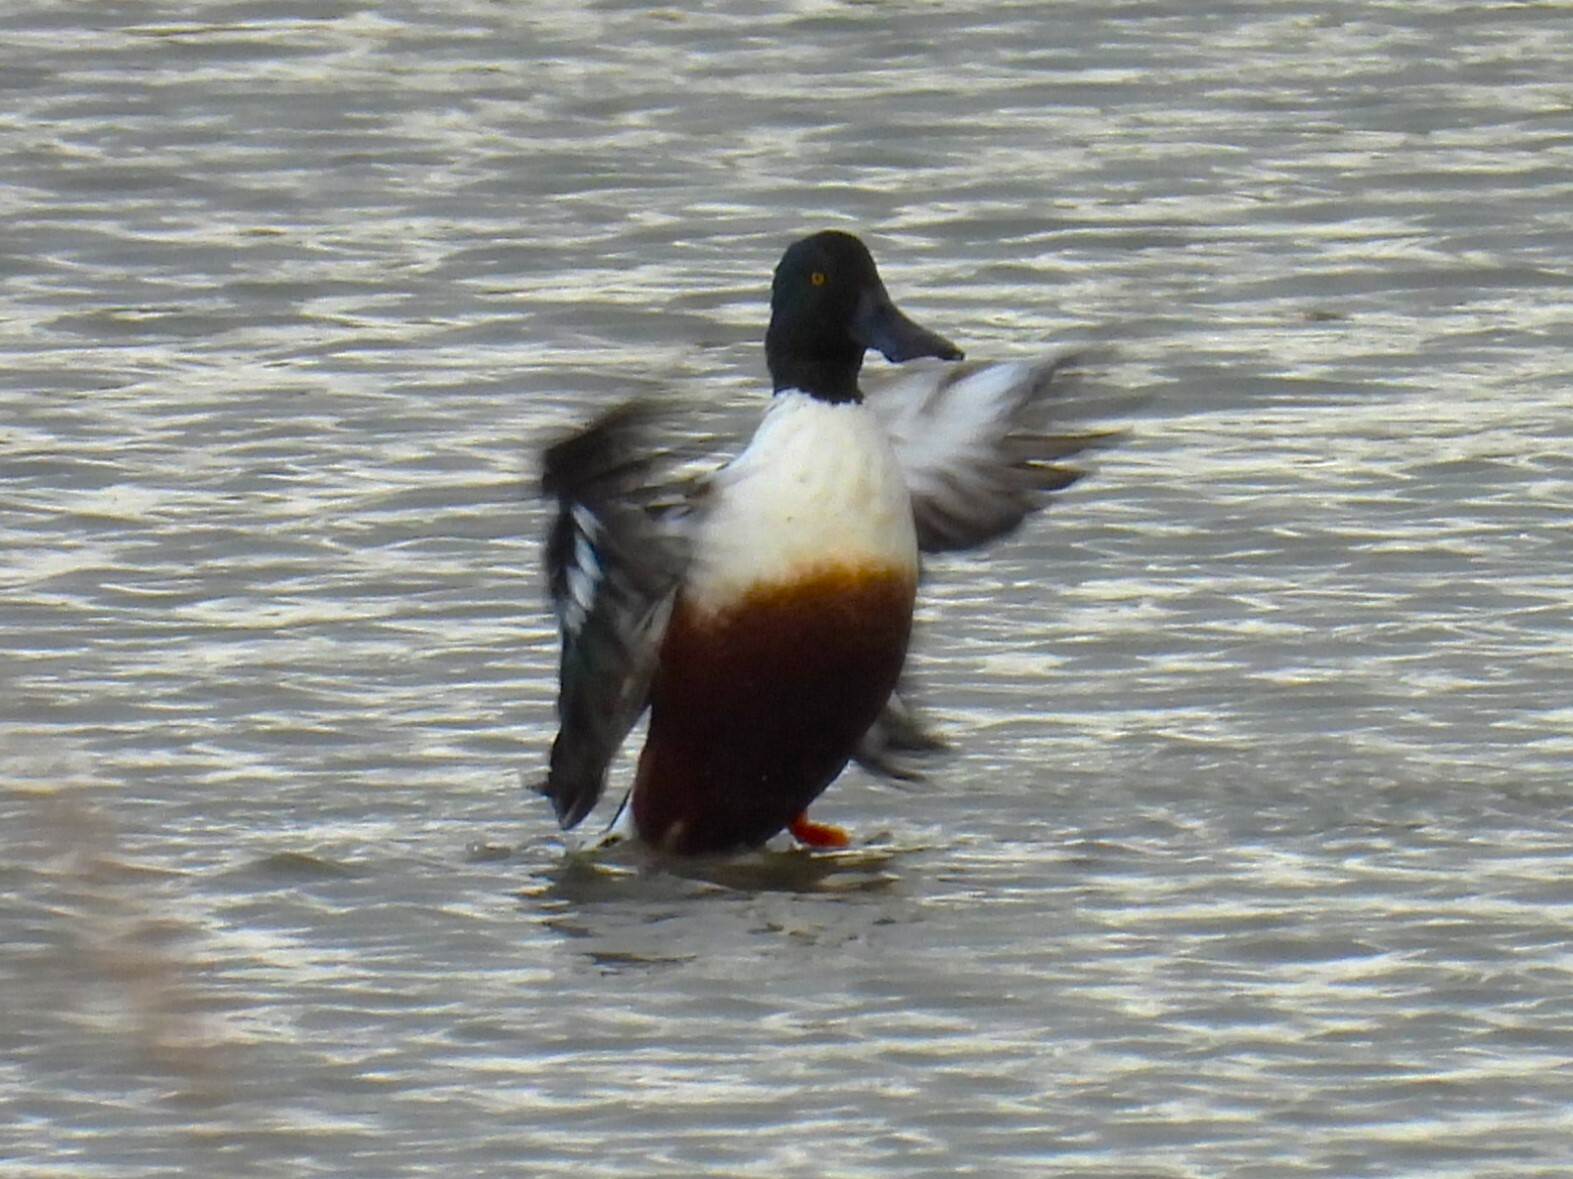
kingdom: Animalia
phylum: Chordata
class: Aves
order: Anseriformes
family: Anatidae
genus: Spatula
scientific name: Spatula clypeata
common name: Northern shoveler
